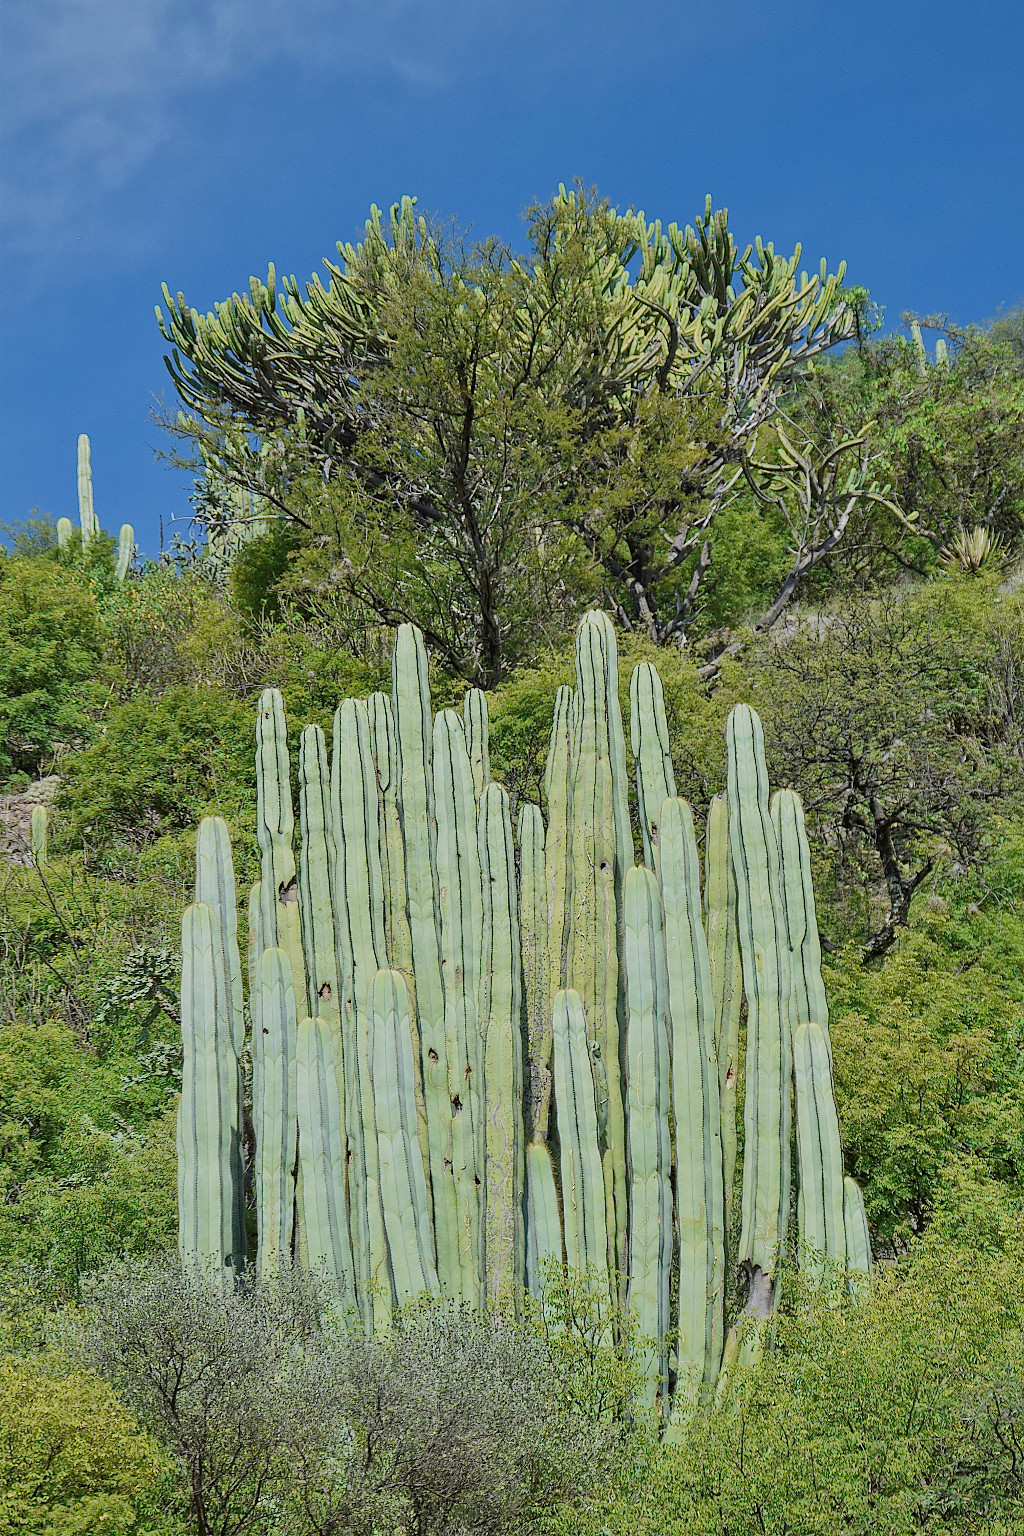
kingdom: Plantae
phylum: Tracheophyta
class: Magnoliopsida
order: Caryophyllales
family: Cactaceae
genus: Stenocereus
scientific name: Stenocereus dumortieri
